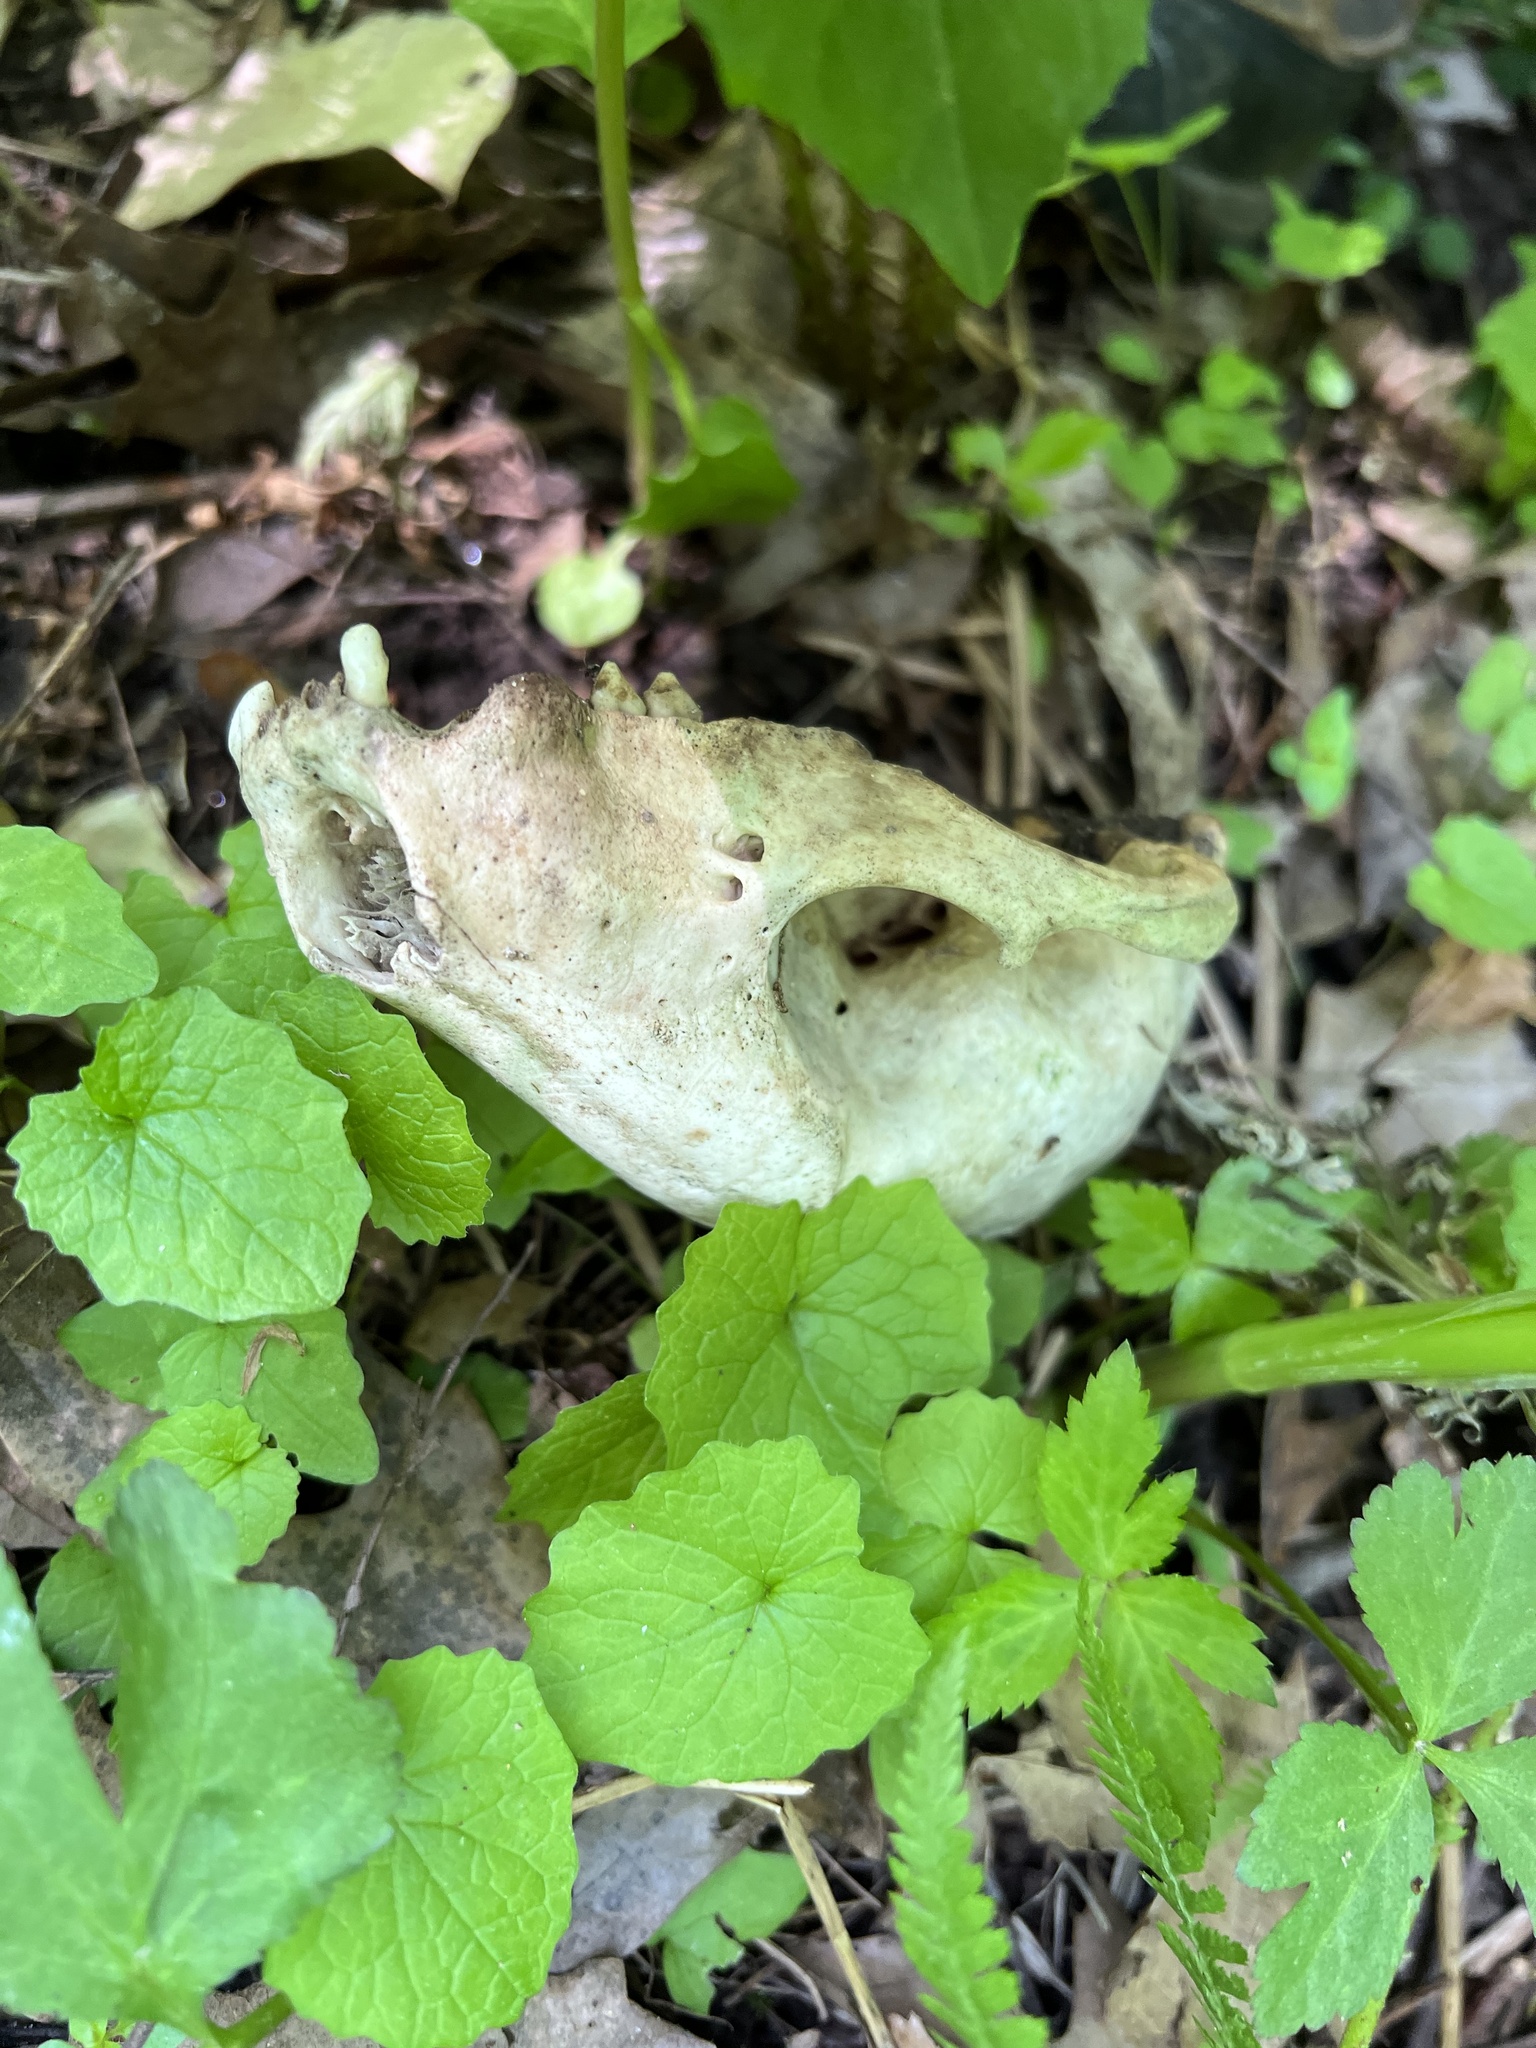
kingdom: Animalia
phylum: Chordata
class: Mammalia
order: Carnivora
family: Procyonidae
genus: Procyon
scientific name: Procyon lotor
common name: Raccoon
